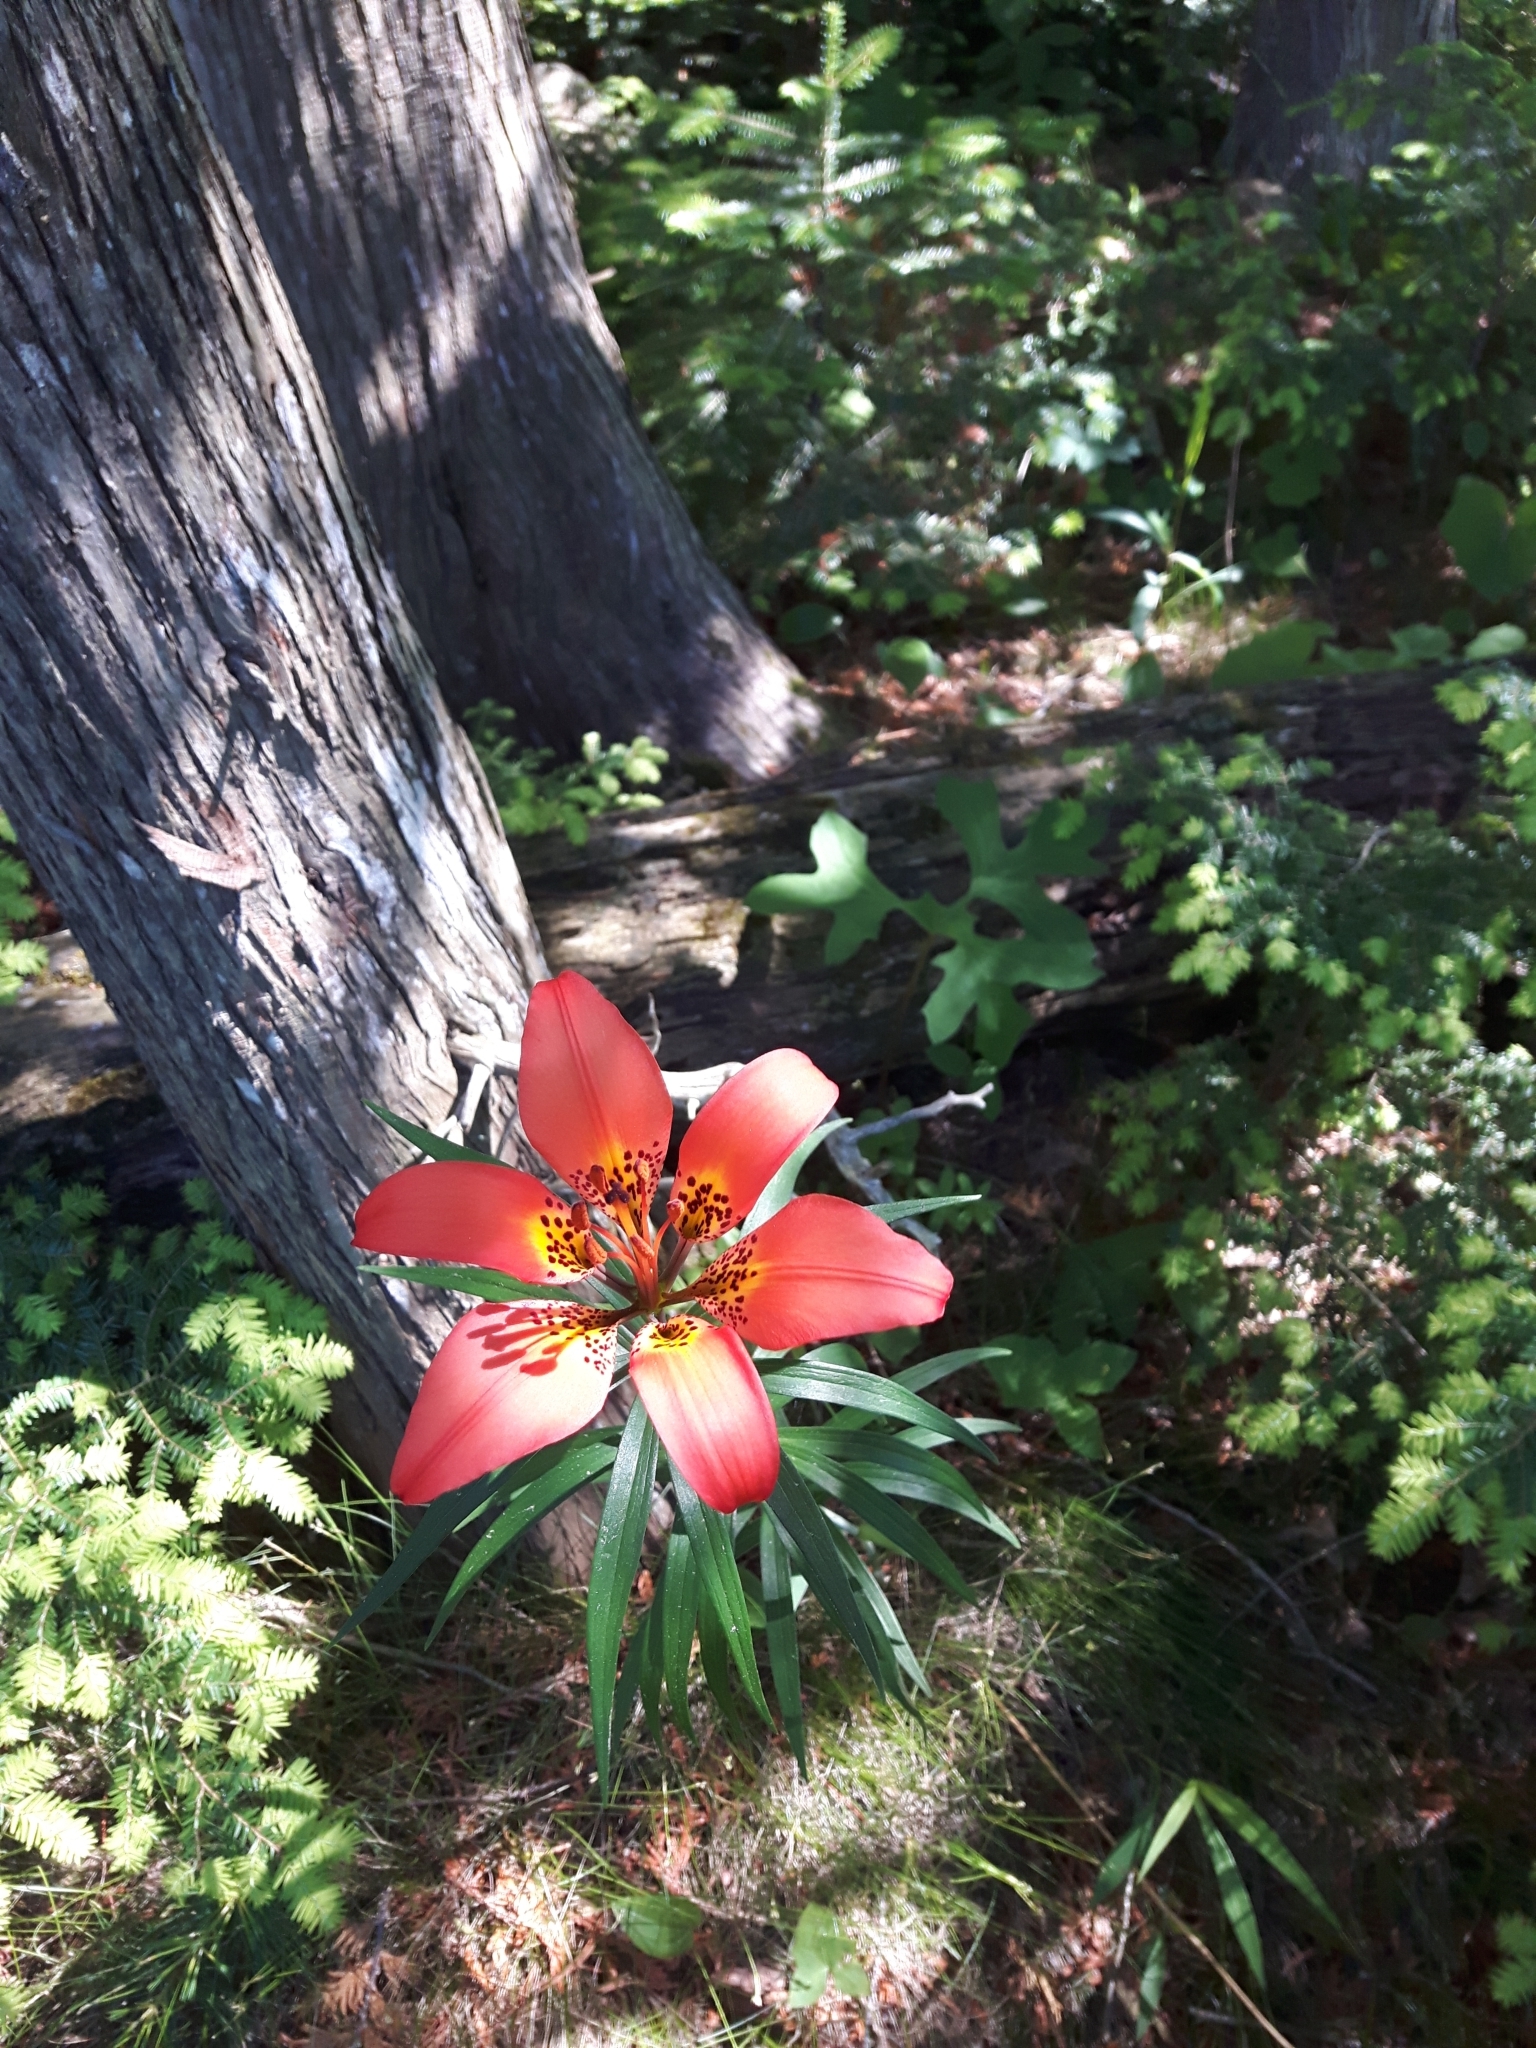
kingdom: Plantae
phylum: Tracheophyta
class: Liliopsida
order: Liliales
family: Liliaceae
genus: Lilium
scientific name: Lilium philadelphicum
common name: Red lily
